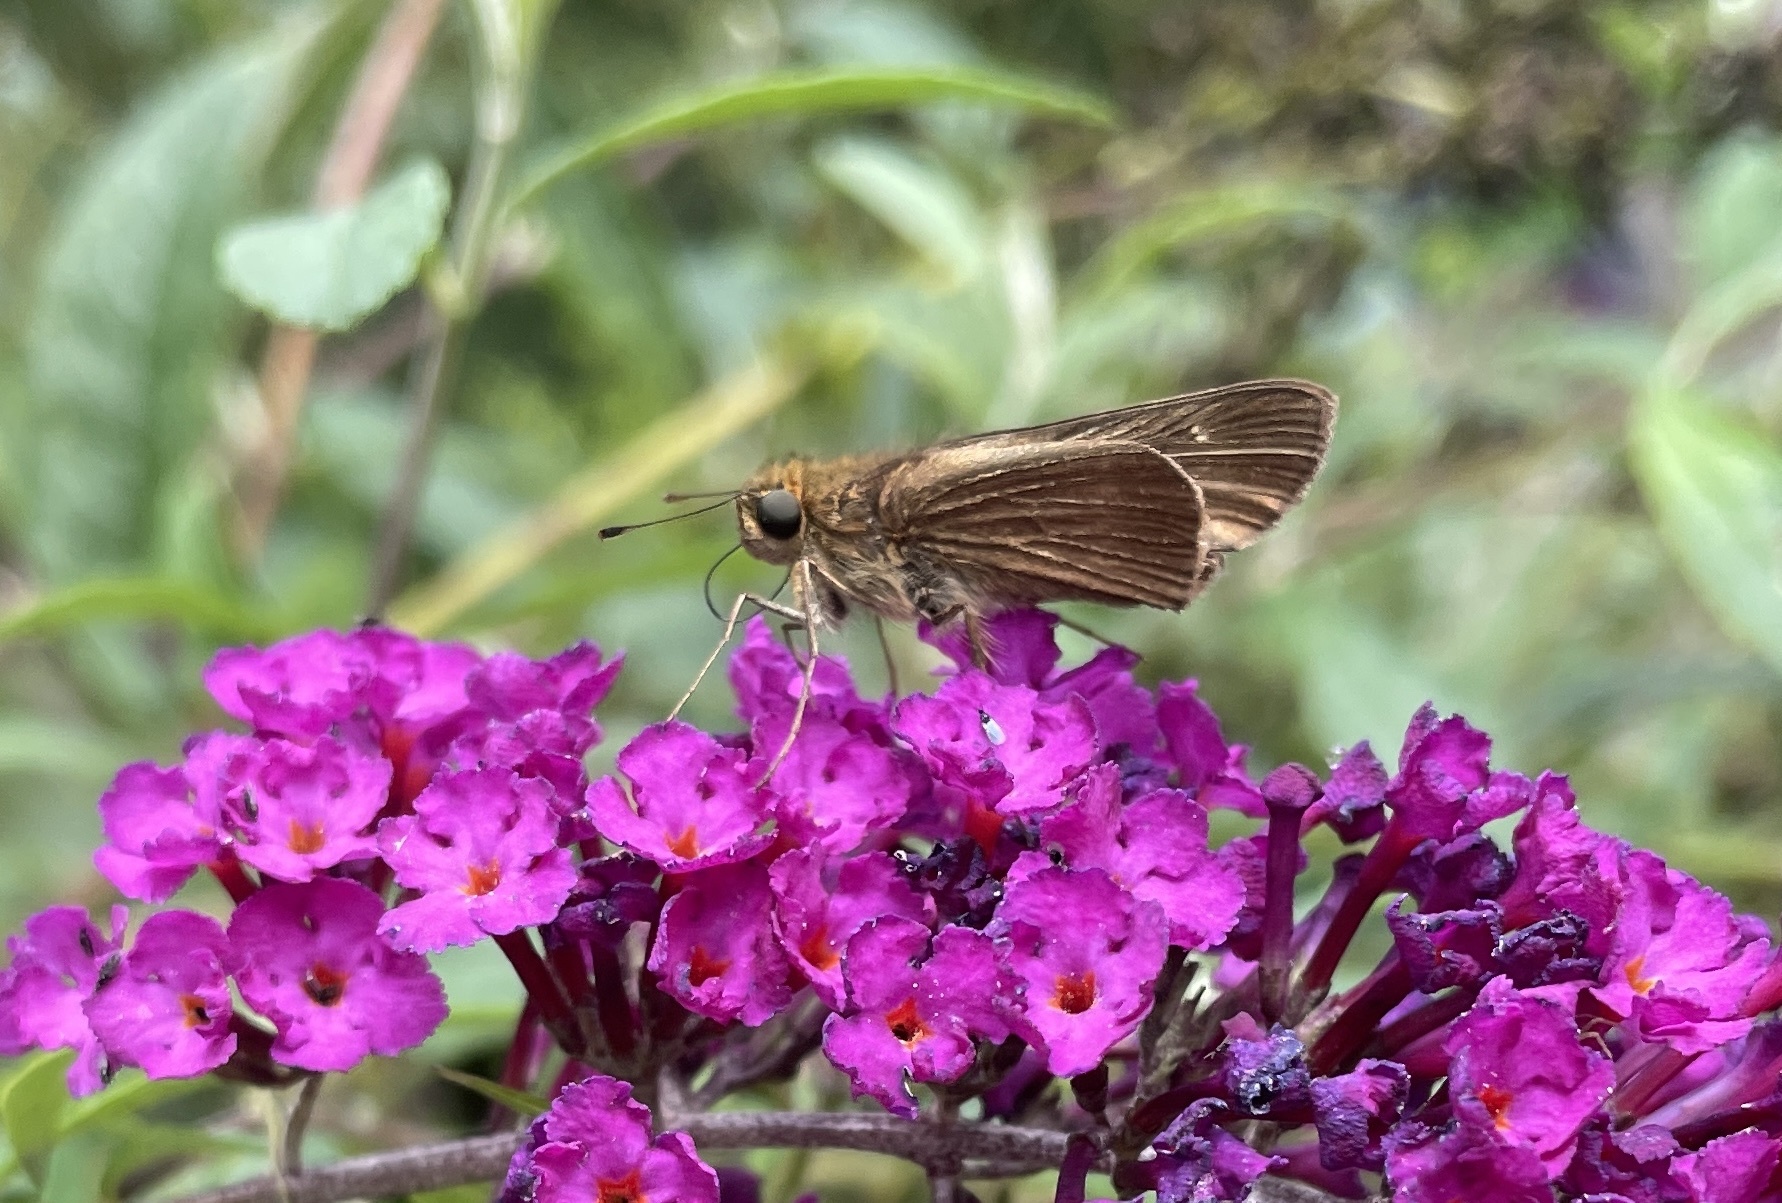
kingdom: Animalia
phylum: Arthropoda
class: Insecta
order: Lepidoptera
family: Hesperiidae
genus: Panoquina
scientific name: Panoquina ocola
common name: Ocola skipper
